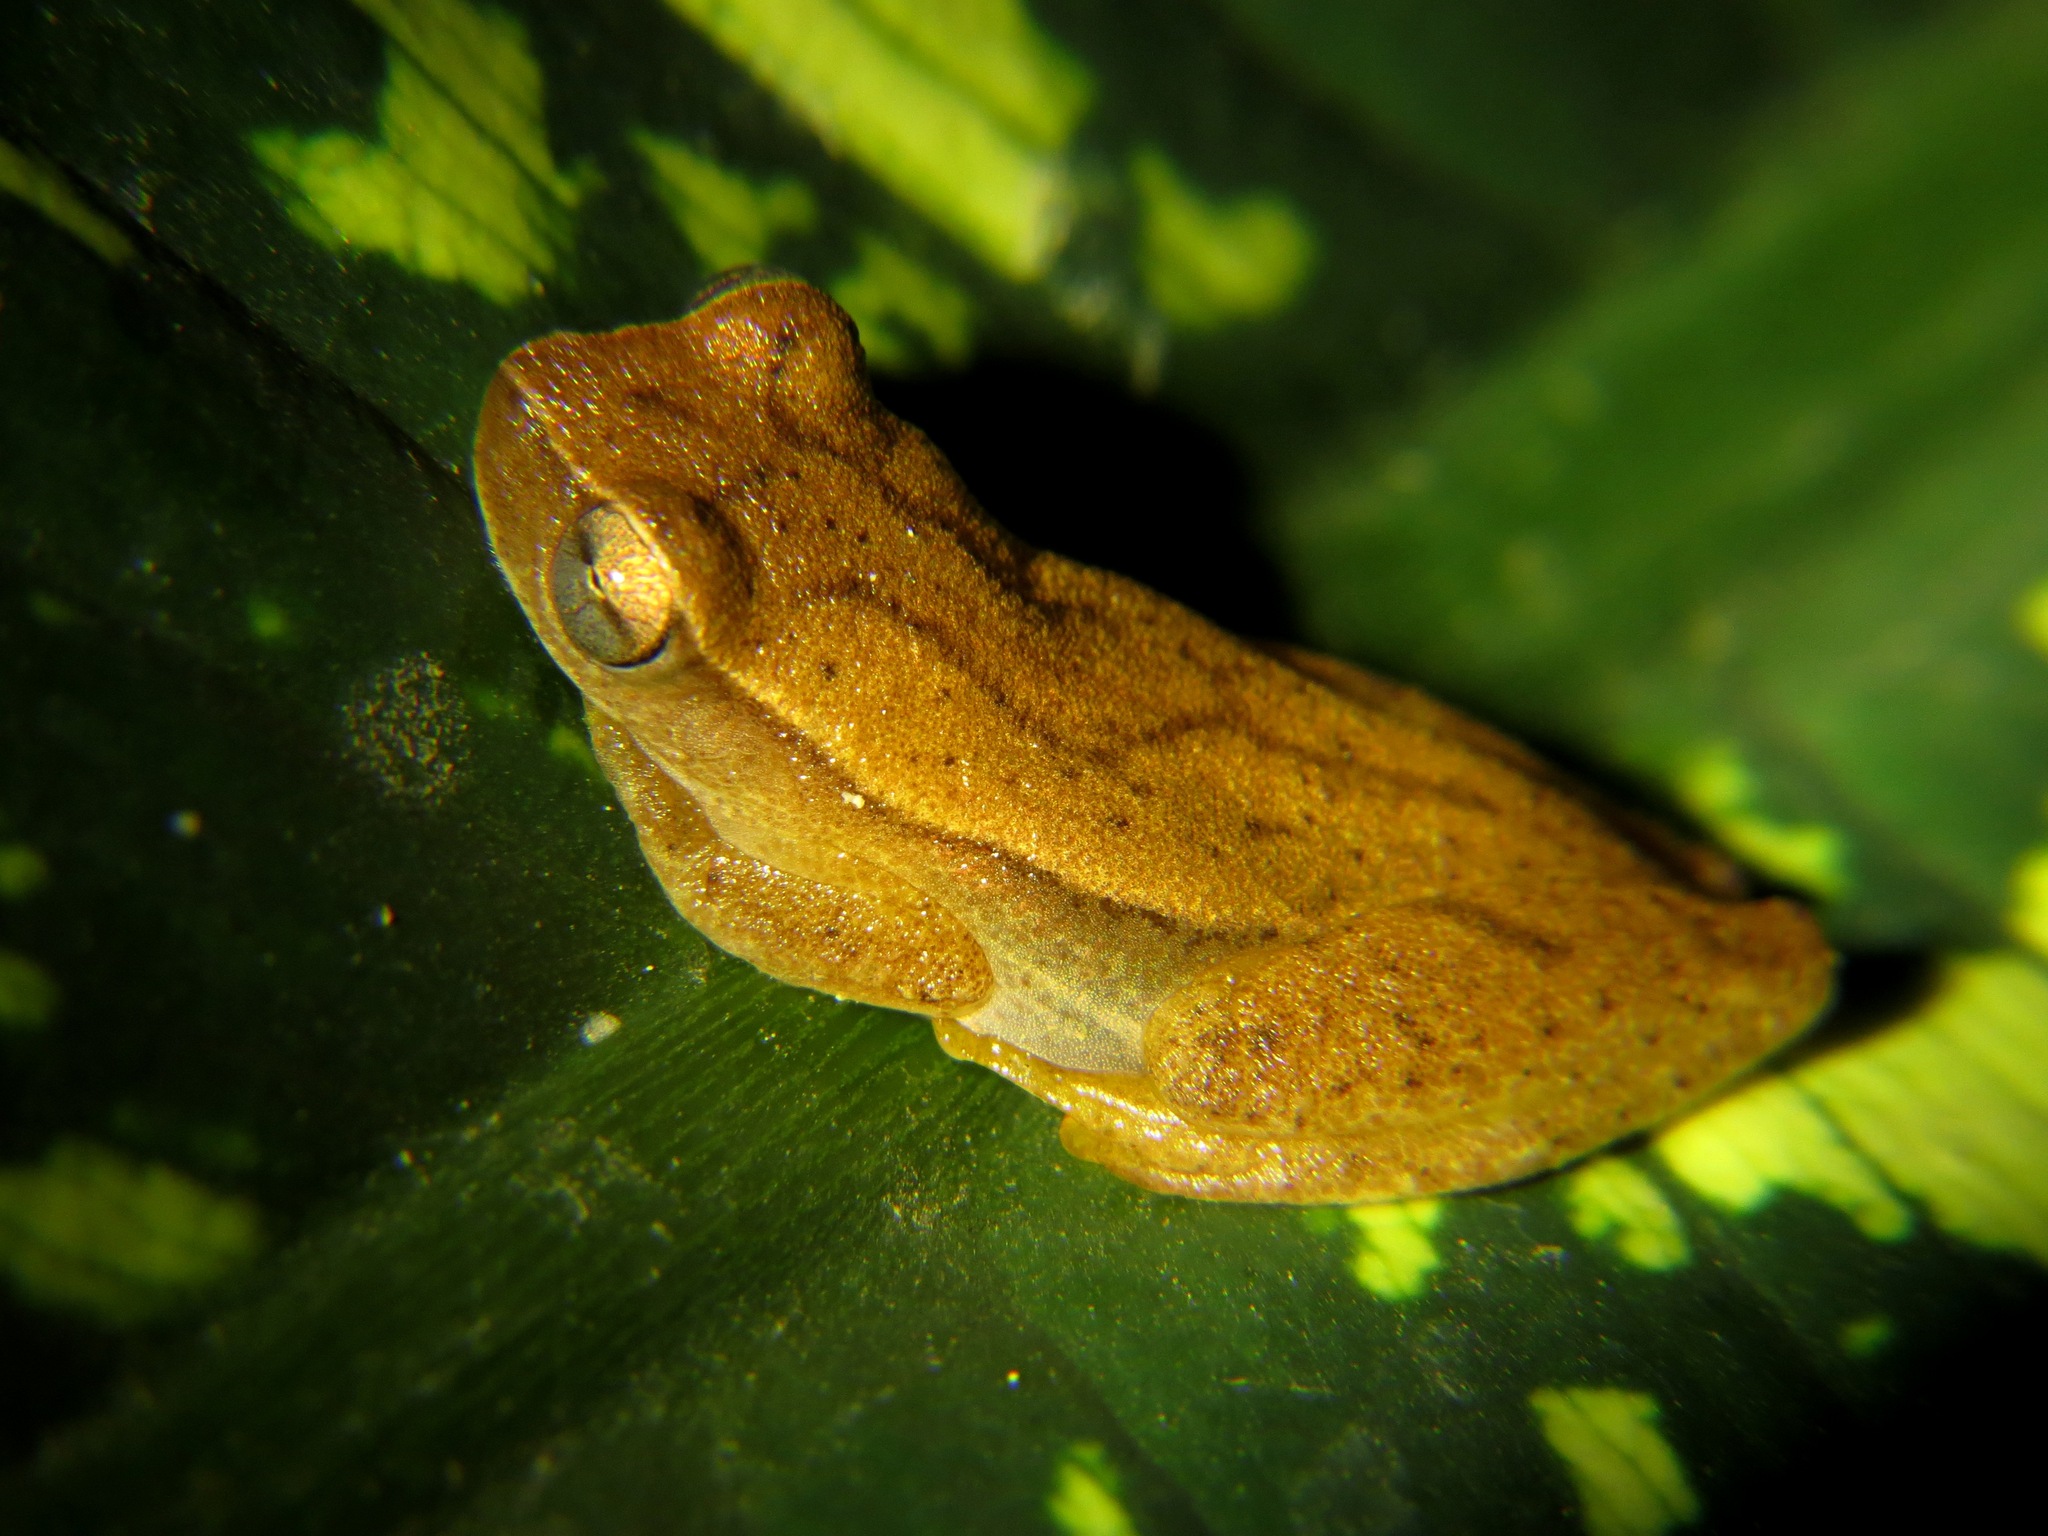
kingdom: Animalia
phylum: Chordata
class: Amphibia
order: Anura
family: Hylidae
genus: Dendropsophus
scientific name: Dendropsophus microcephalus
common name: Small-headed treefrog
